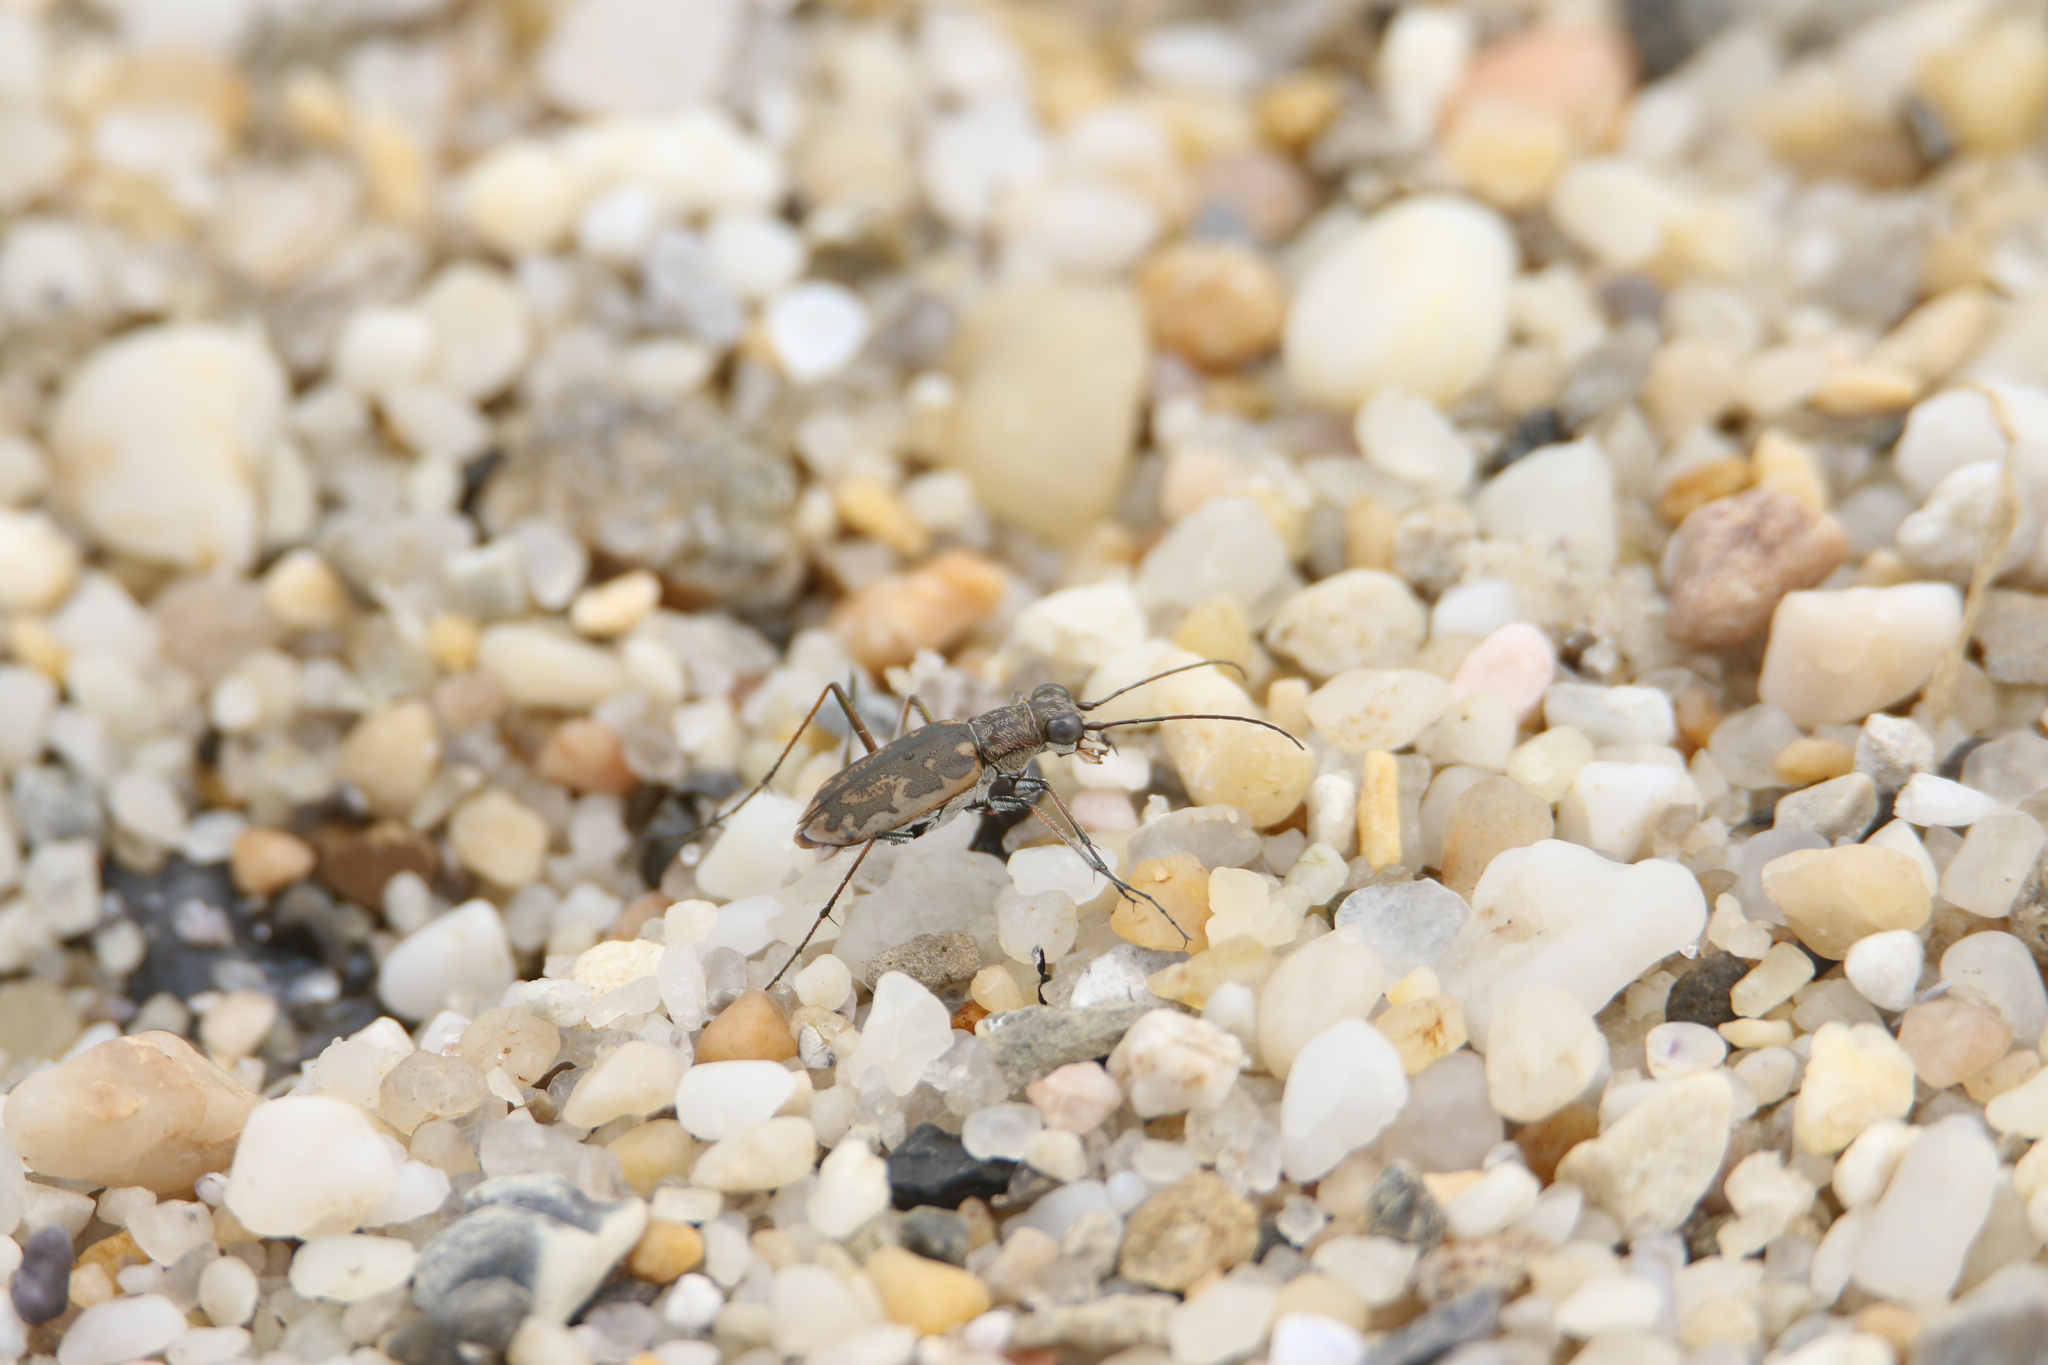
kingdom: Animalia
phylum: Arthropoda
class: Insecta
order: Coleoptera
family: Carabidae
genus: Ellipsoptera
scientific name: Ellipsoptera marginata
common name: Margined tiger beetle
